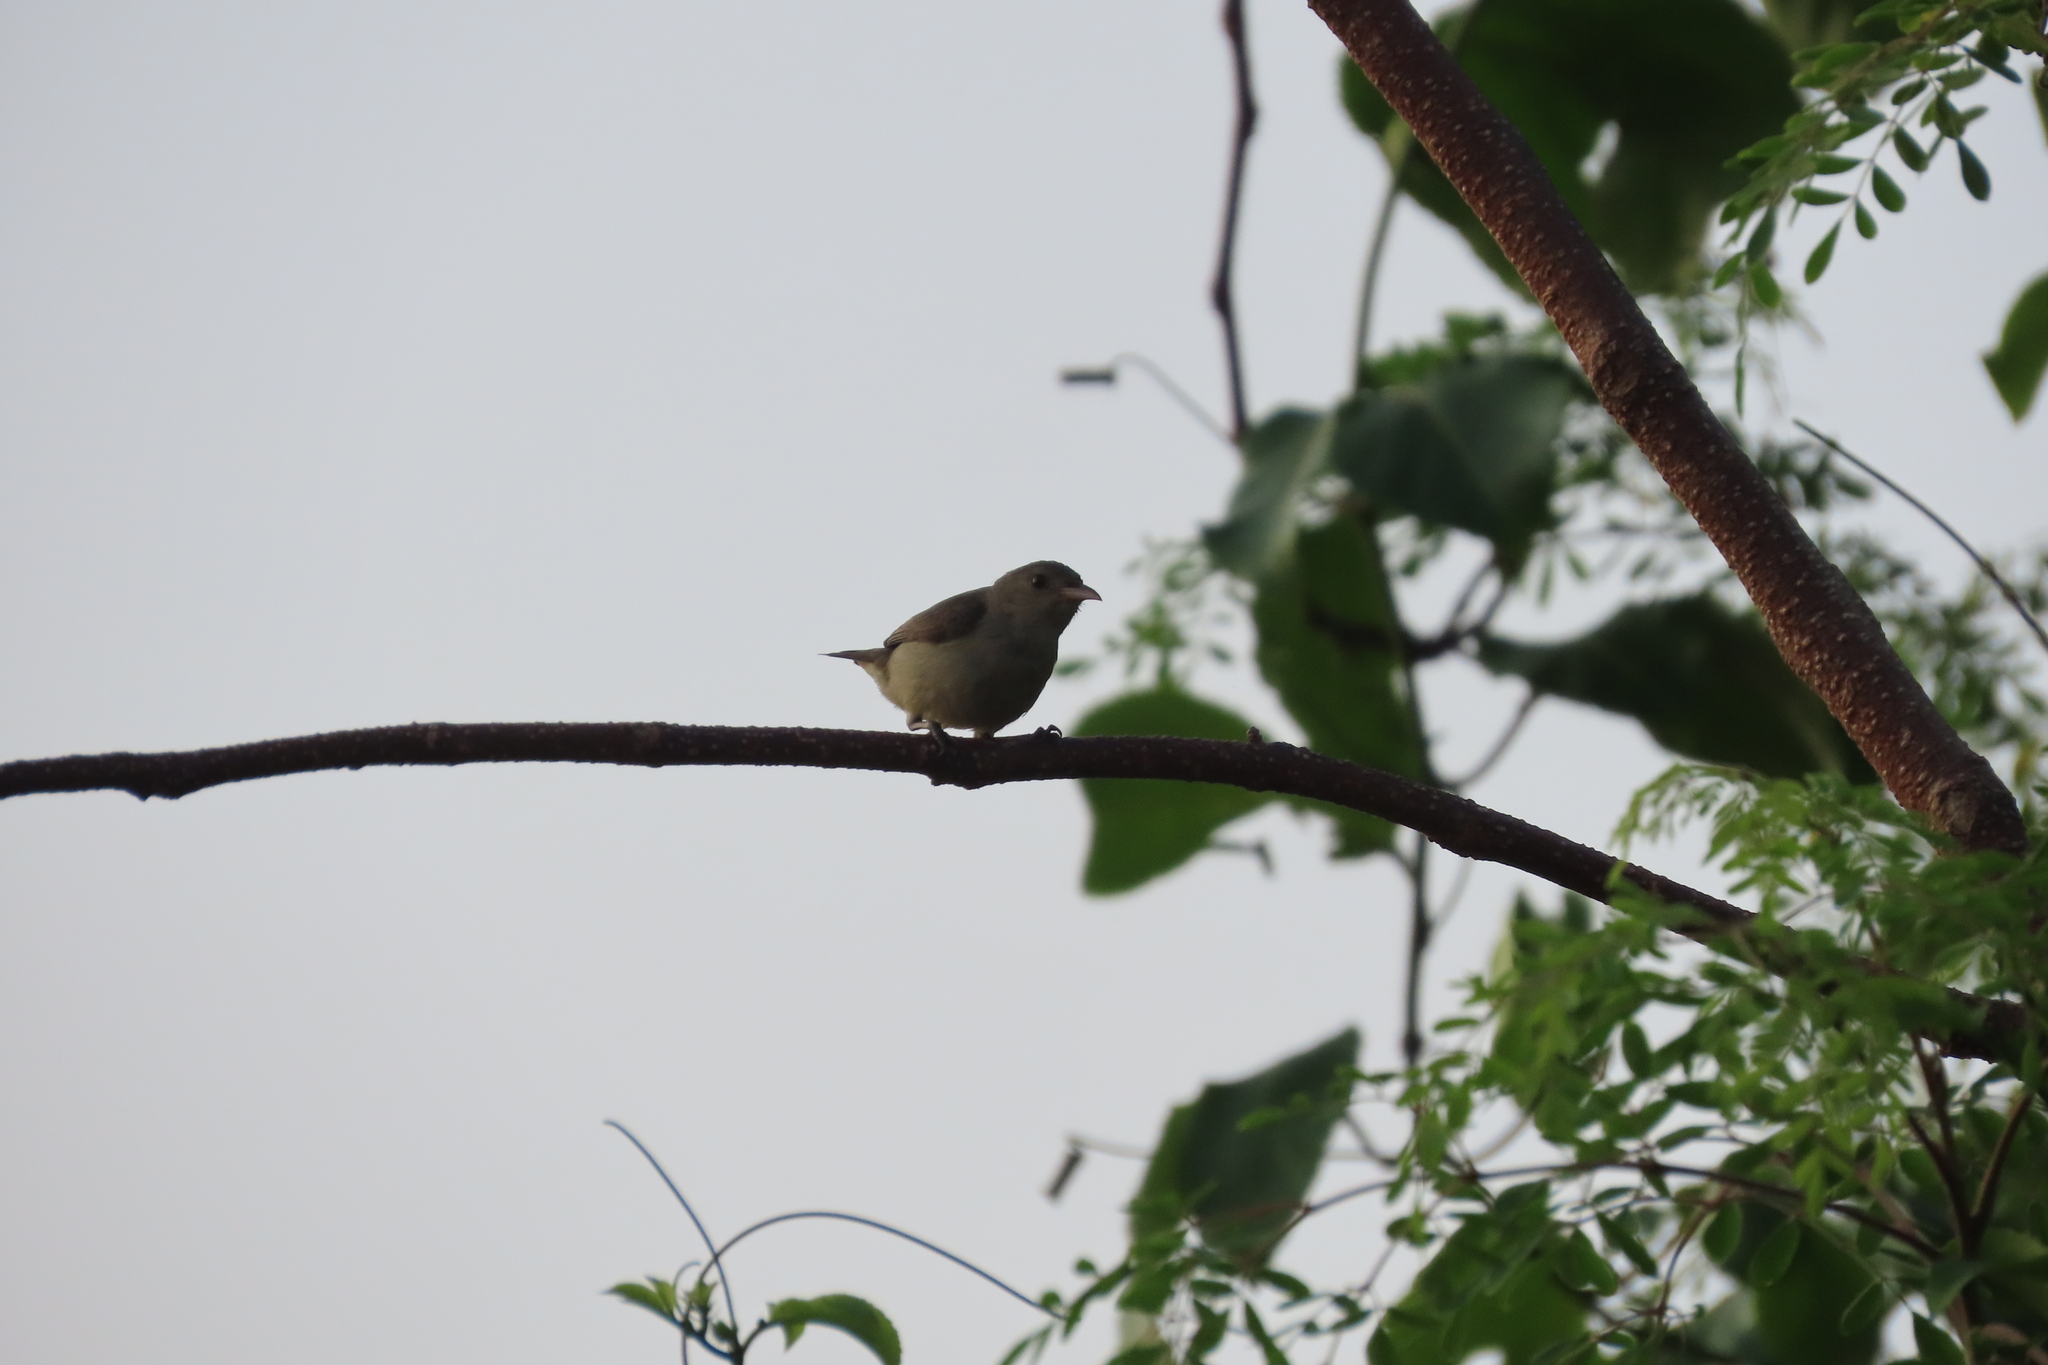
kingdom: Animalia
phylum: Chordata
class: Aves
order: Passeriformes
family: Dicaeidae
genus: Dicaeum
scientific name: Dicaeum erythrorhynchos
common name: Pale-billed flowerpecker
